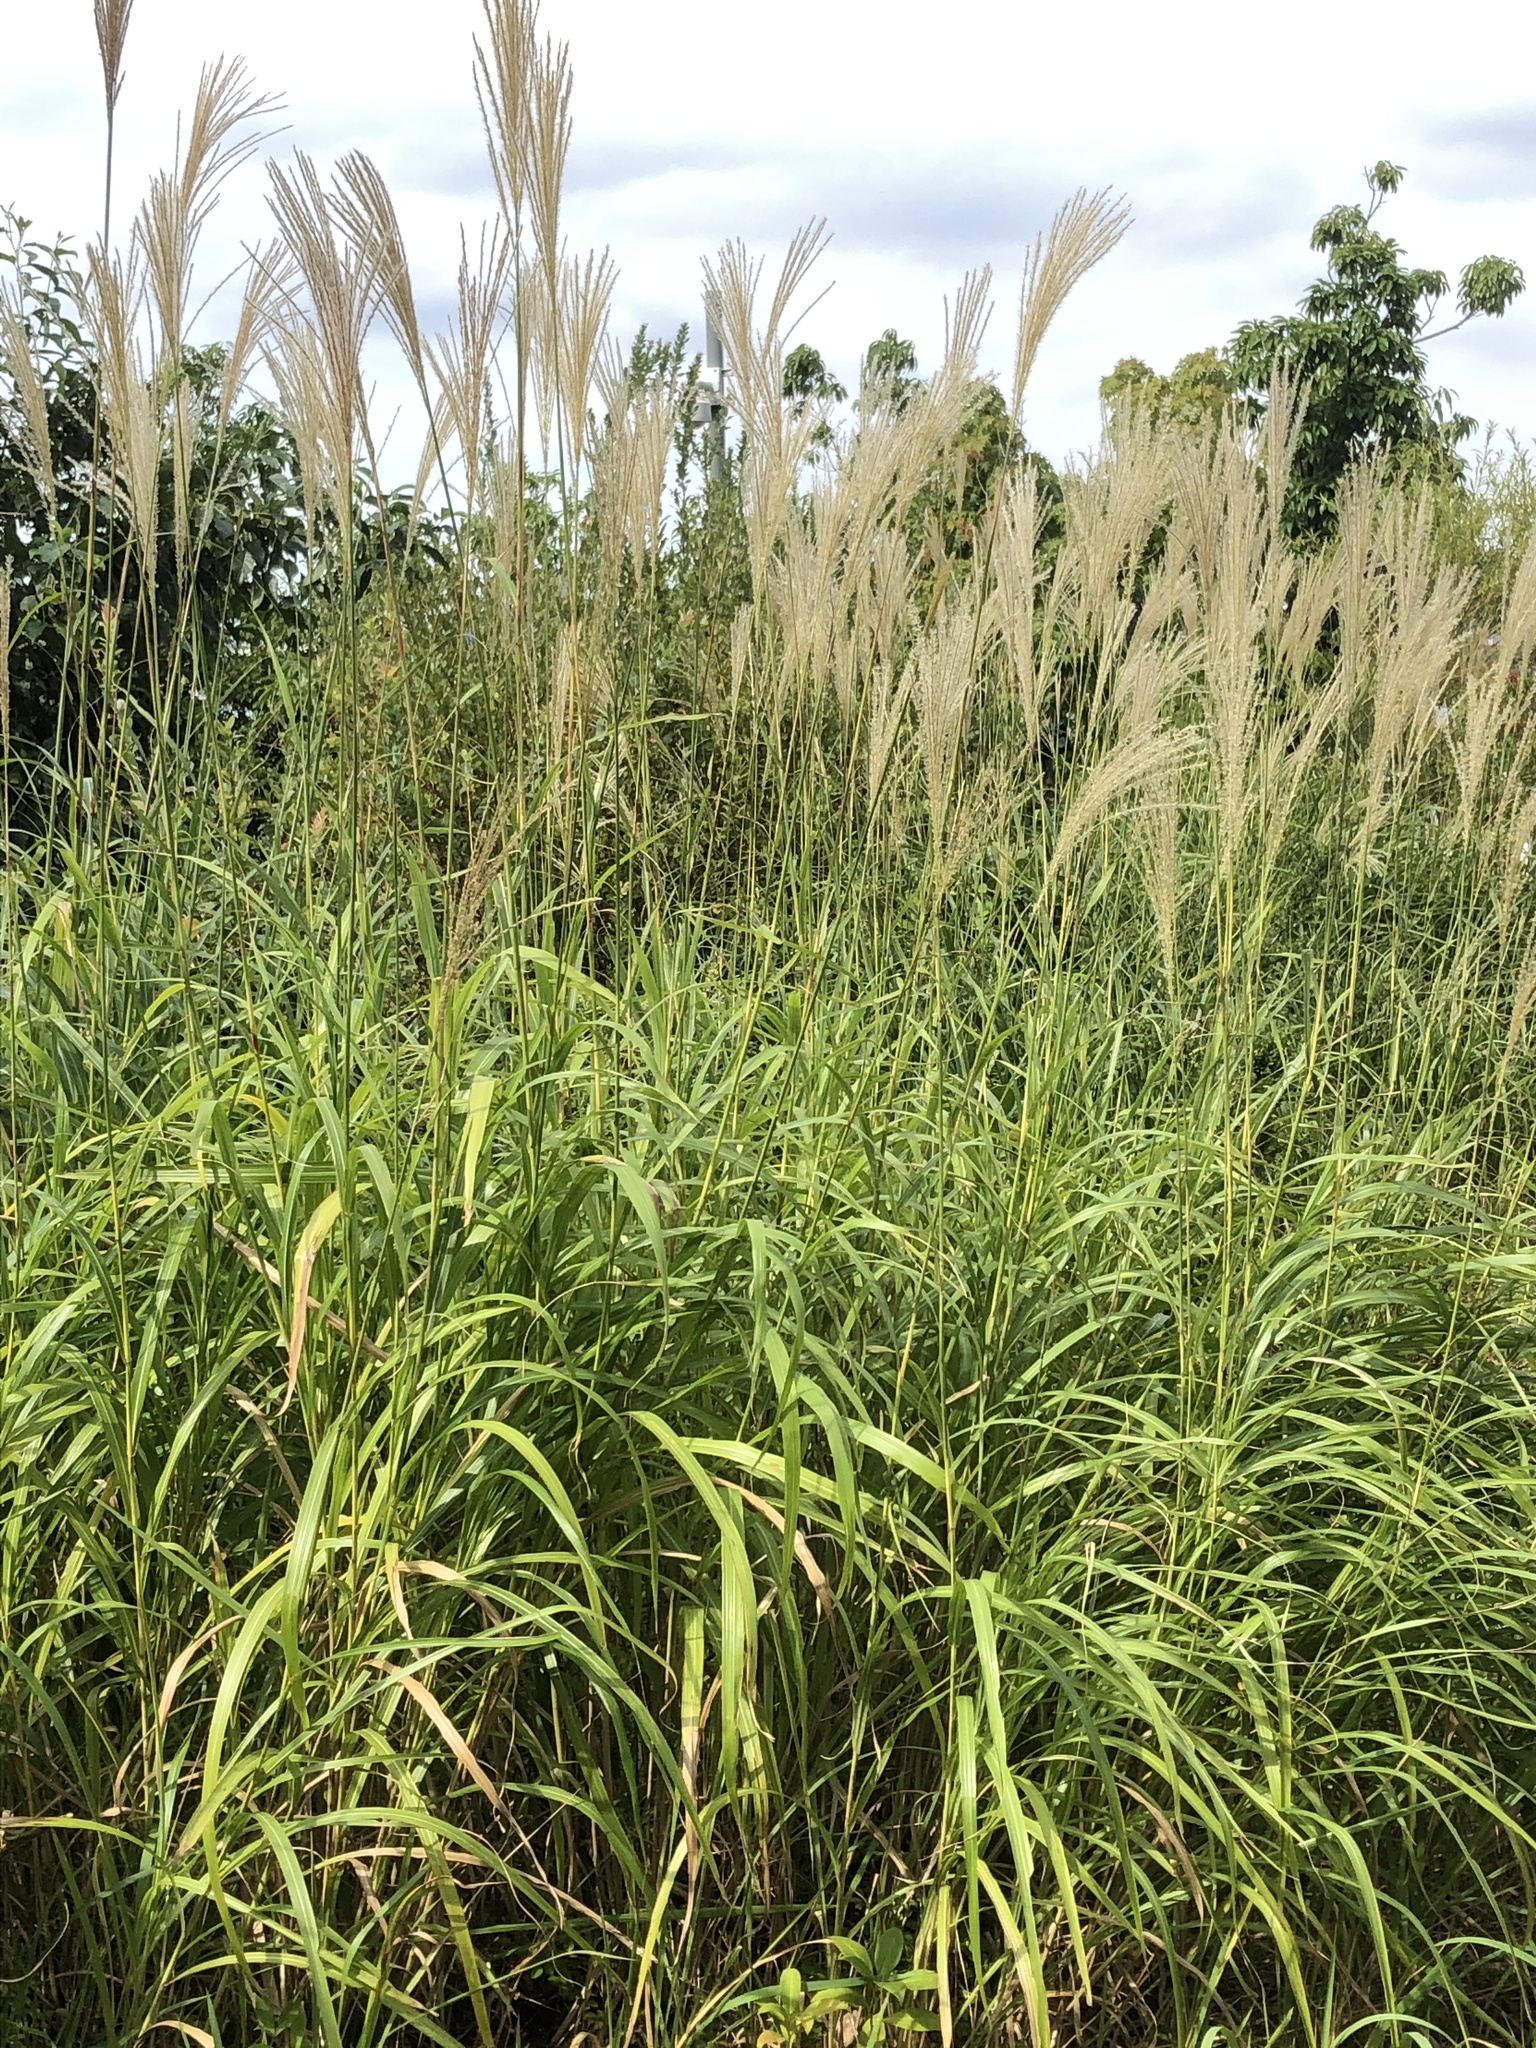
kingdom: Plantae
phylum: Tracheophyta
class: Liliopsida
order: Poales
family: Poaceae
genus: Miscanthus
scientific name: Miscanthus sinensis
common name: Chinese silvergrass
